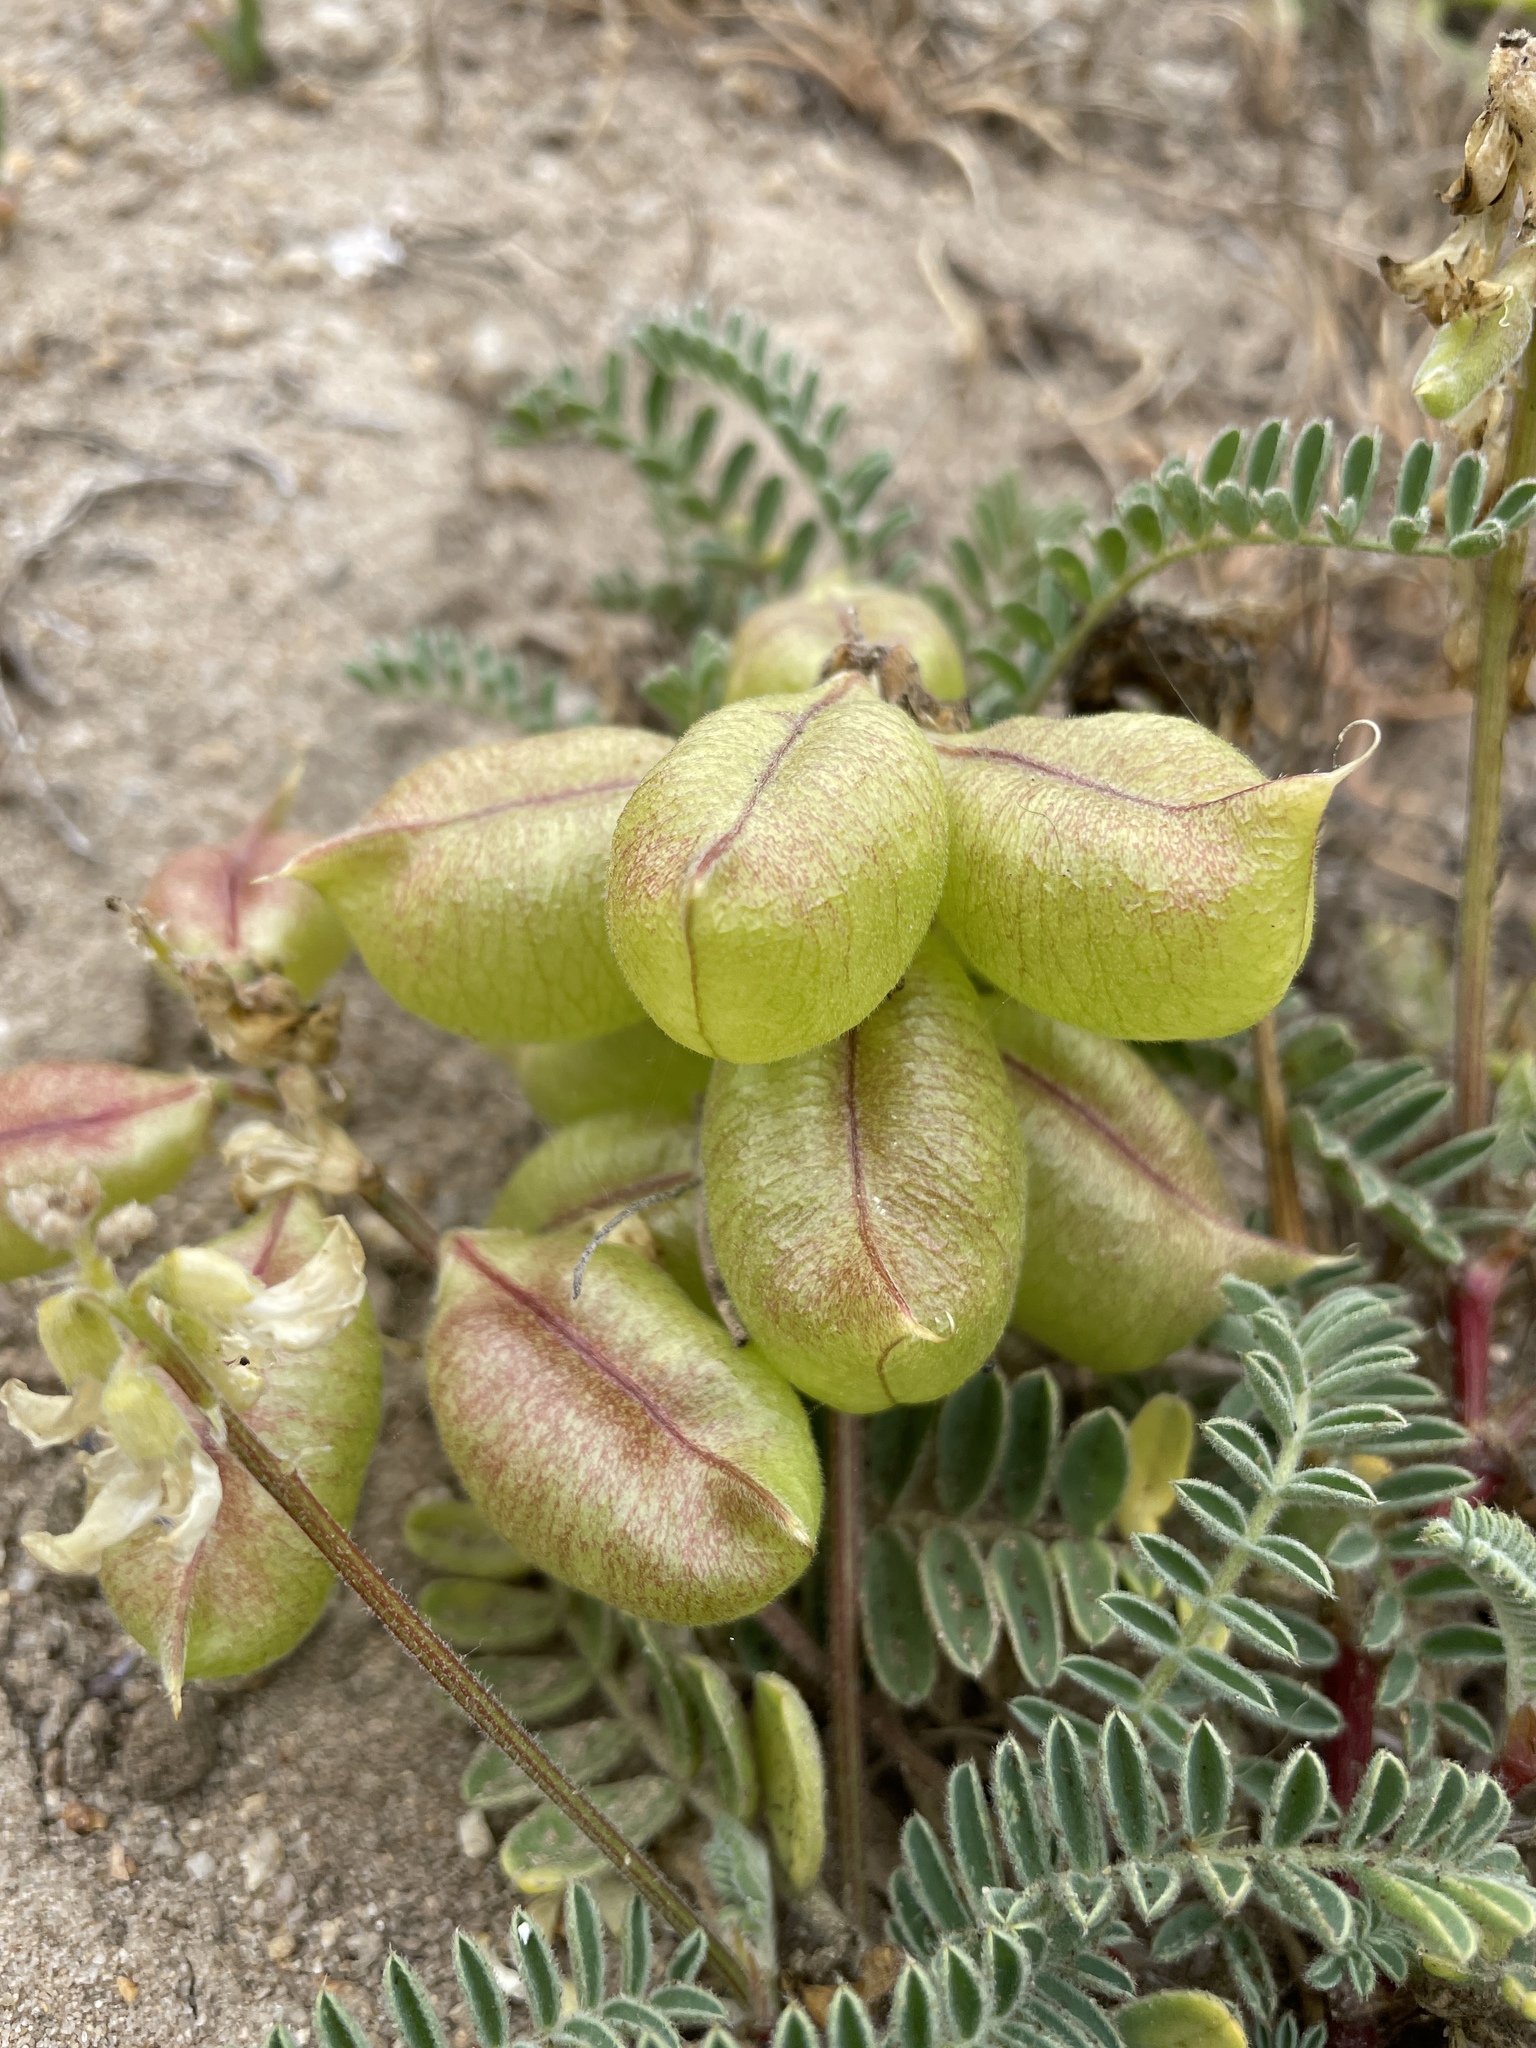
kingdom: Plantae
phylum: Tracheophyta
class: Magnoliopsida
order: Fabales
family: Fabaceae
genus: Astragalus
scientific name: Astragalus nuttallii
